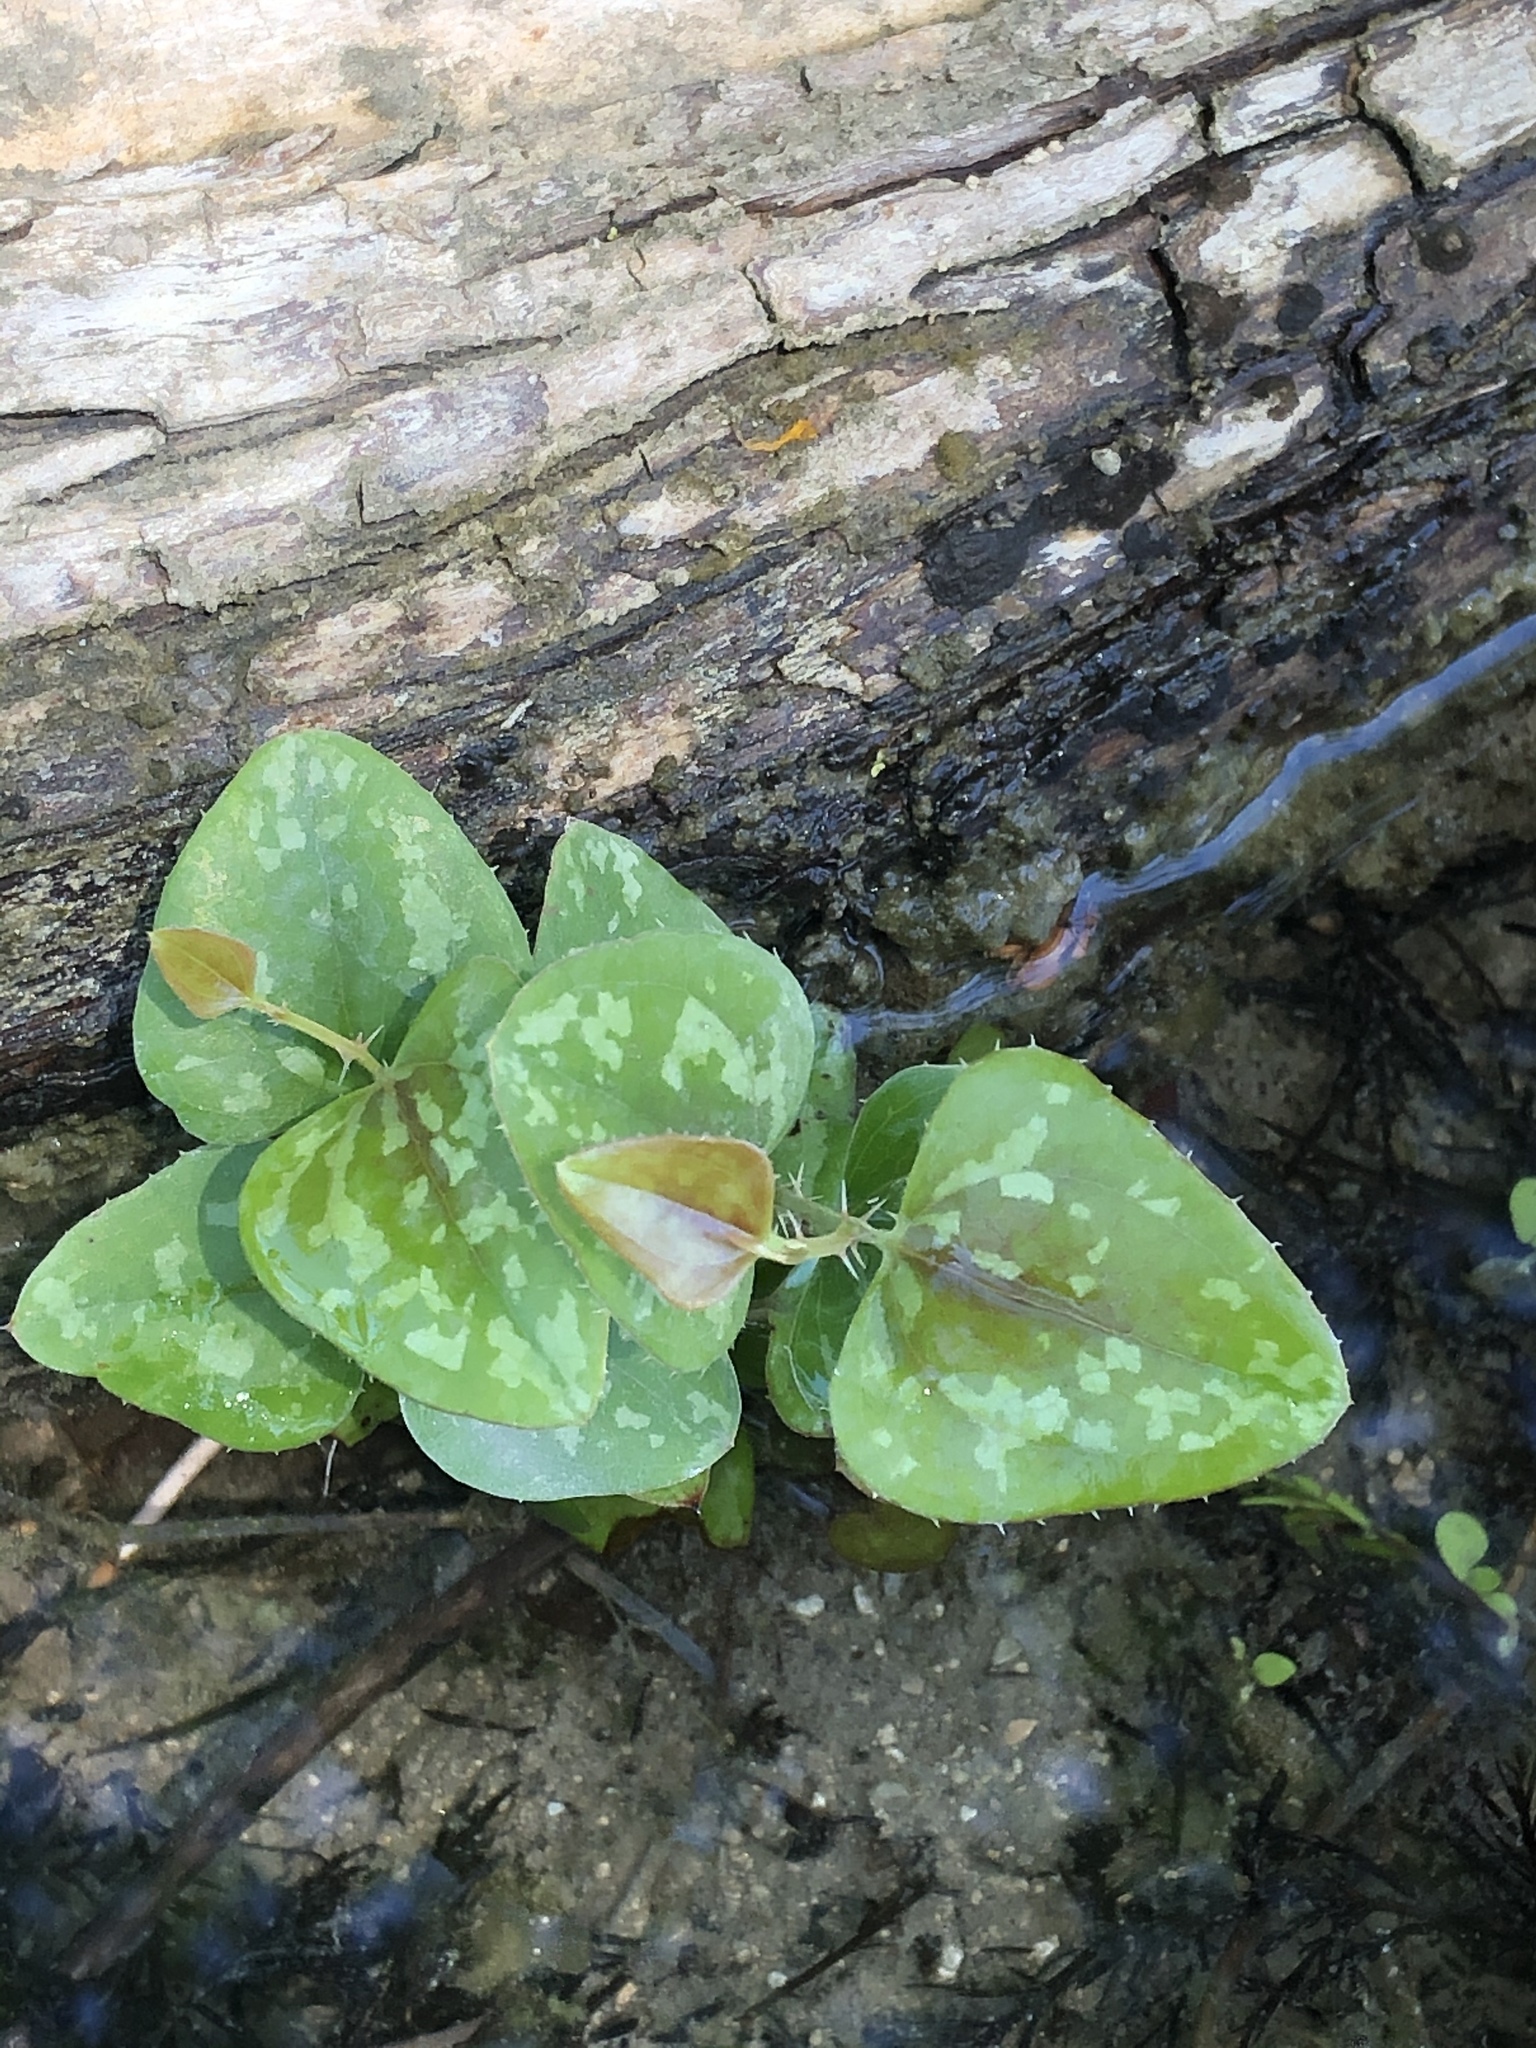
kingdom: Plantae
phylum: Tracheophyta
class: Liliopsida
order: Liliales
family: Smilacaceae
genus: Smilax
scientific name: Smilax bona-nox
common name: Catbrier
